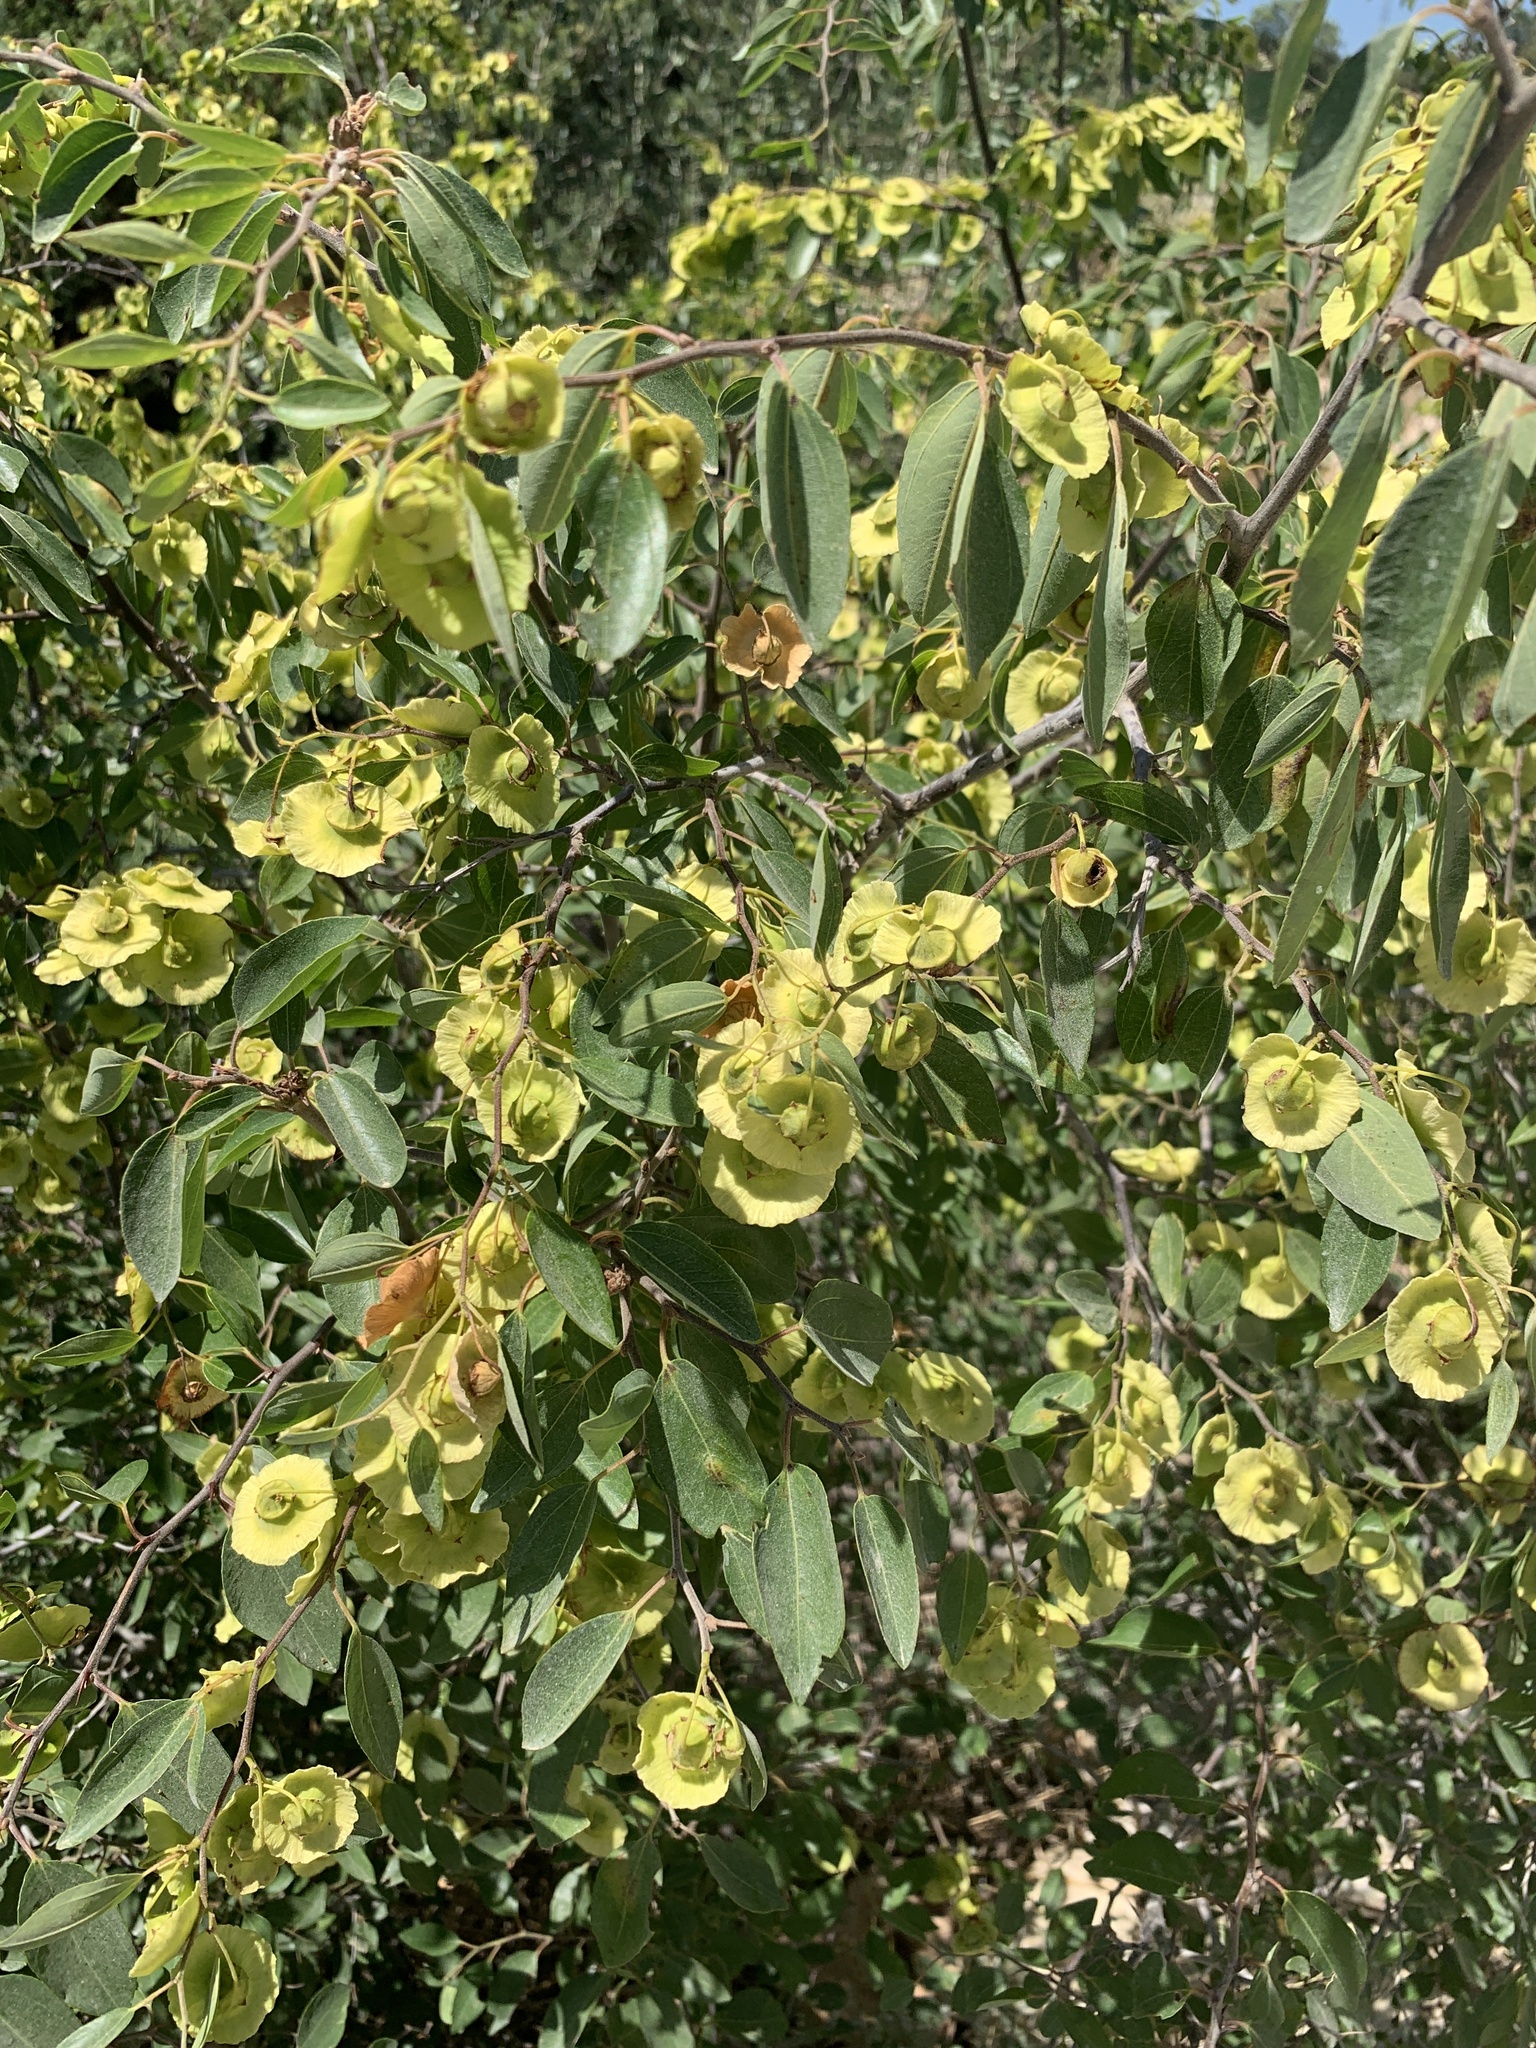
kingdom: Plantae
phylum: Tracheophyta
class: Magnoliopsida
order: Rosales
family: Rhamnaceae
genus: Paliurus
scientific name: Paliurus spina-christi
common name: Jeruselem thorn
